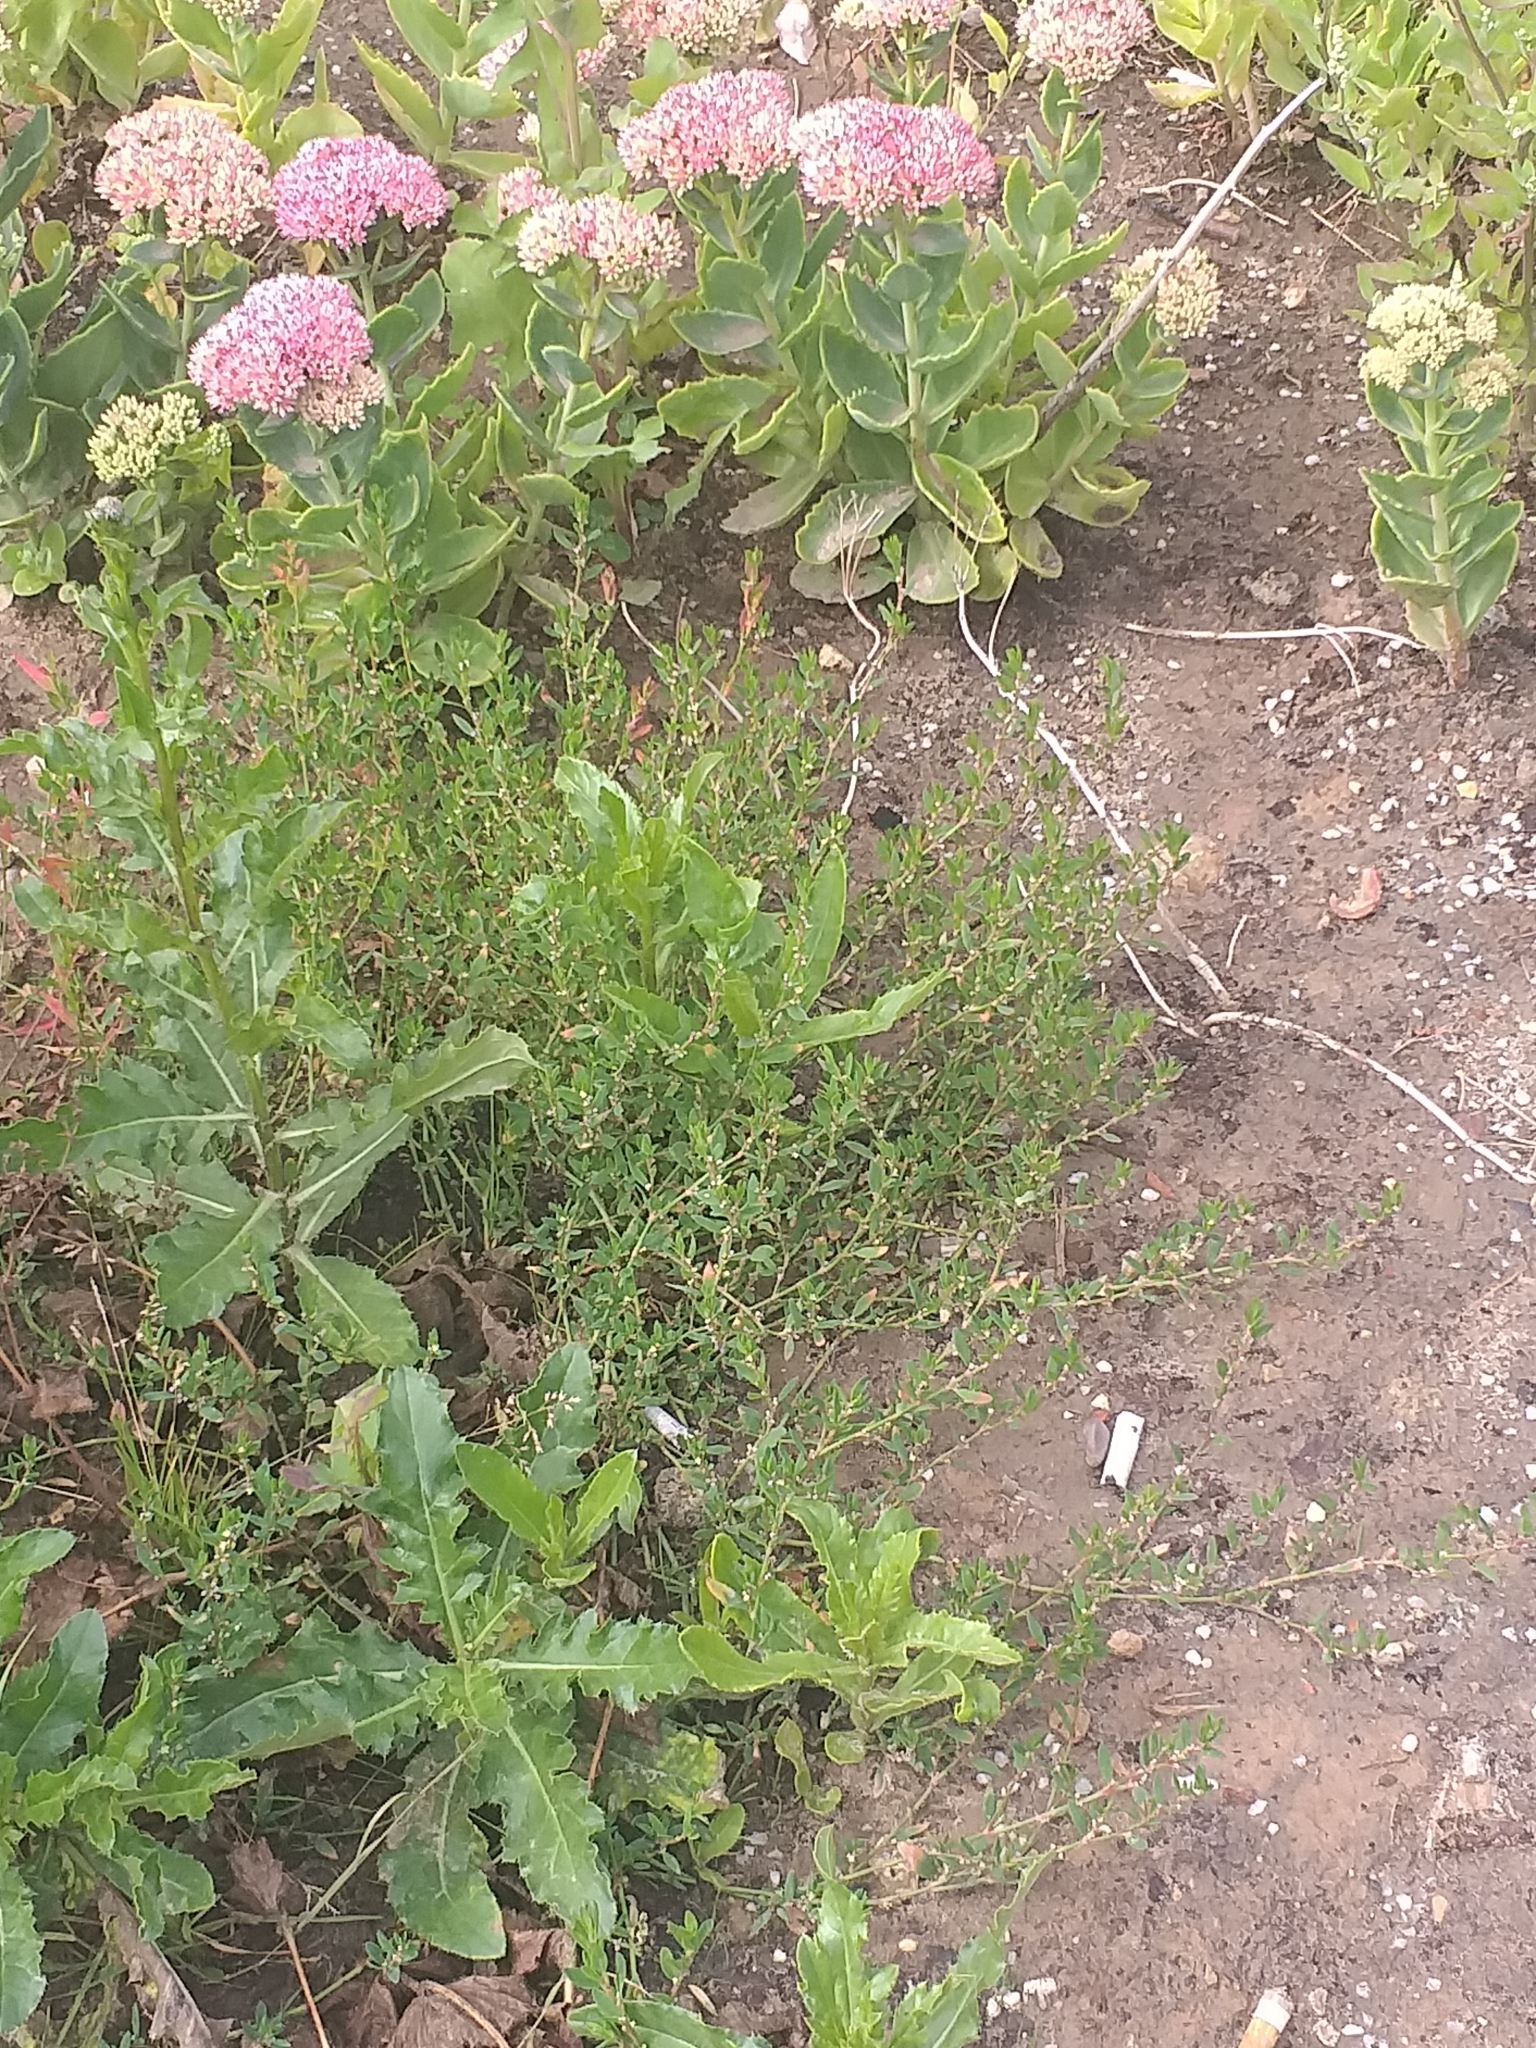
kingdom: Plantae
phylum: Tracheophyta
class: Magnoliopsida
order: Caryophyllales
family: Polygonaceae
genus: Polygonum
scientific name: Polygonum
